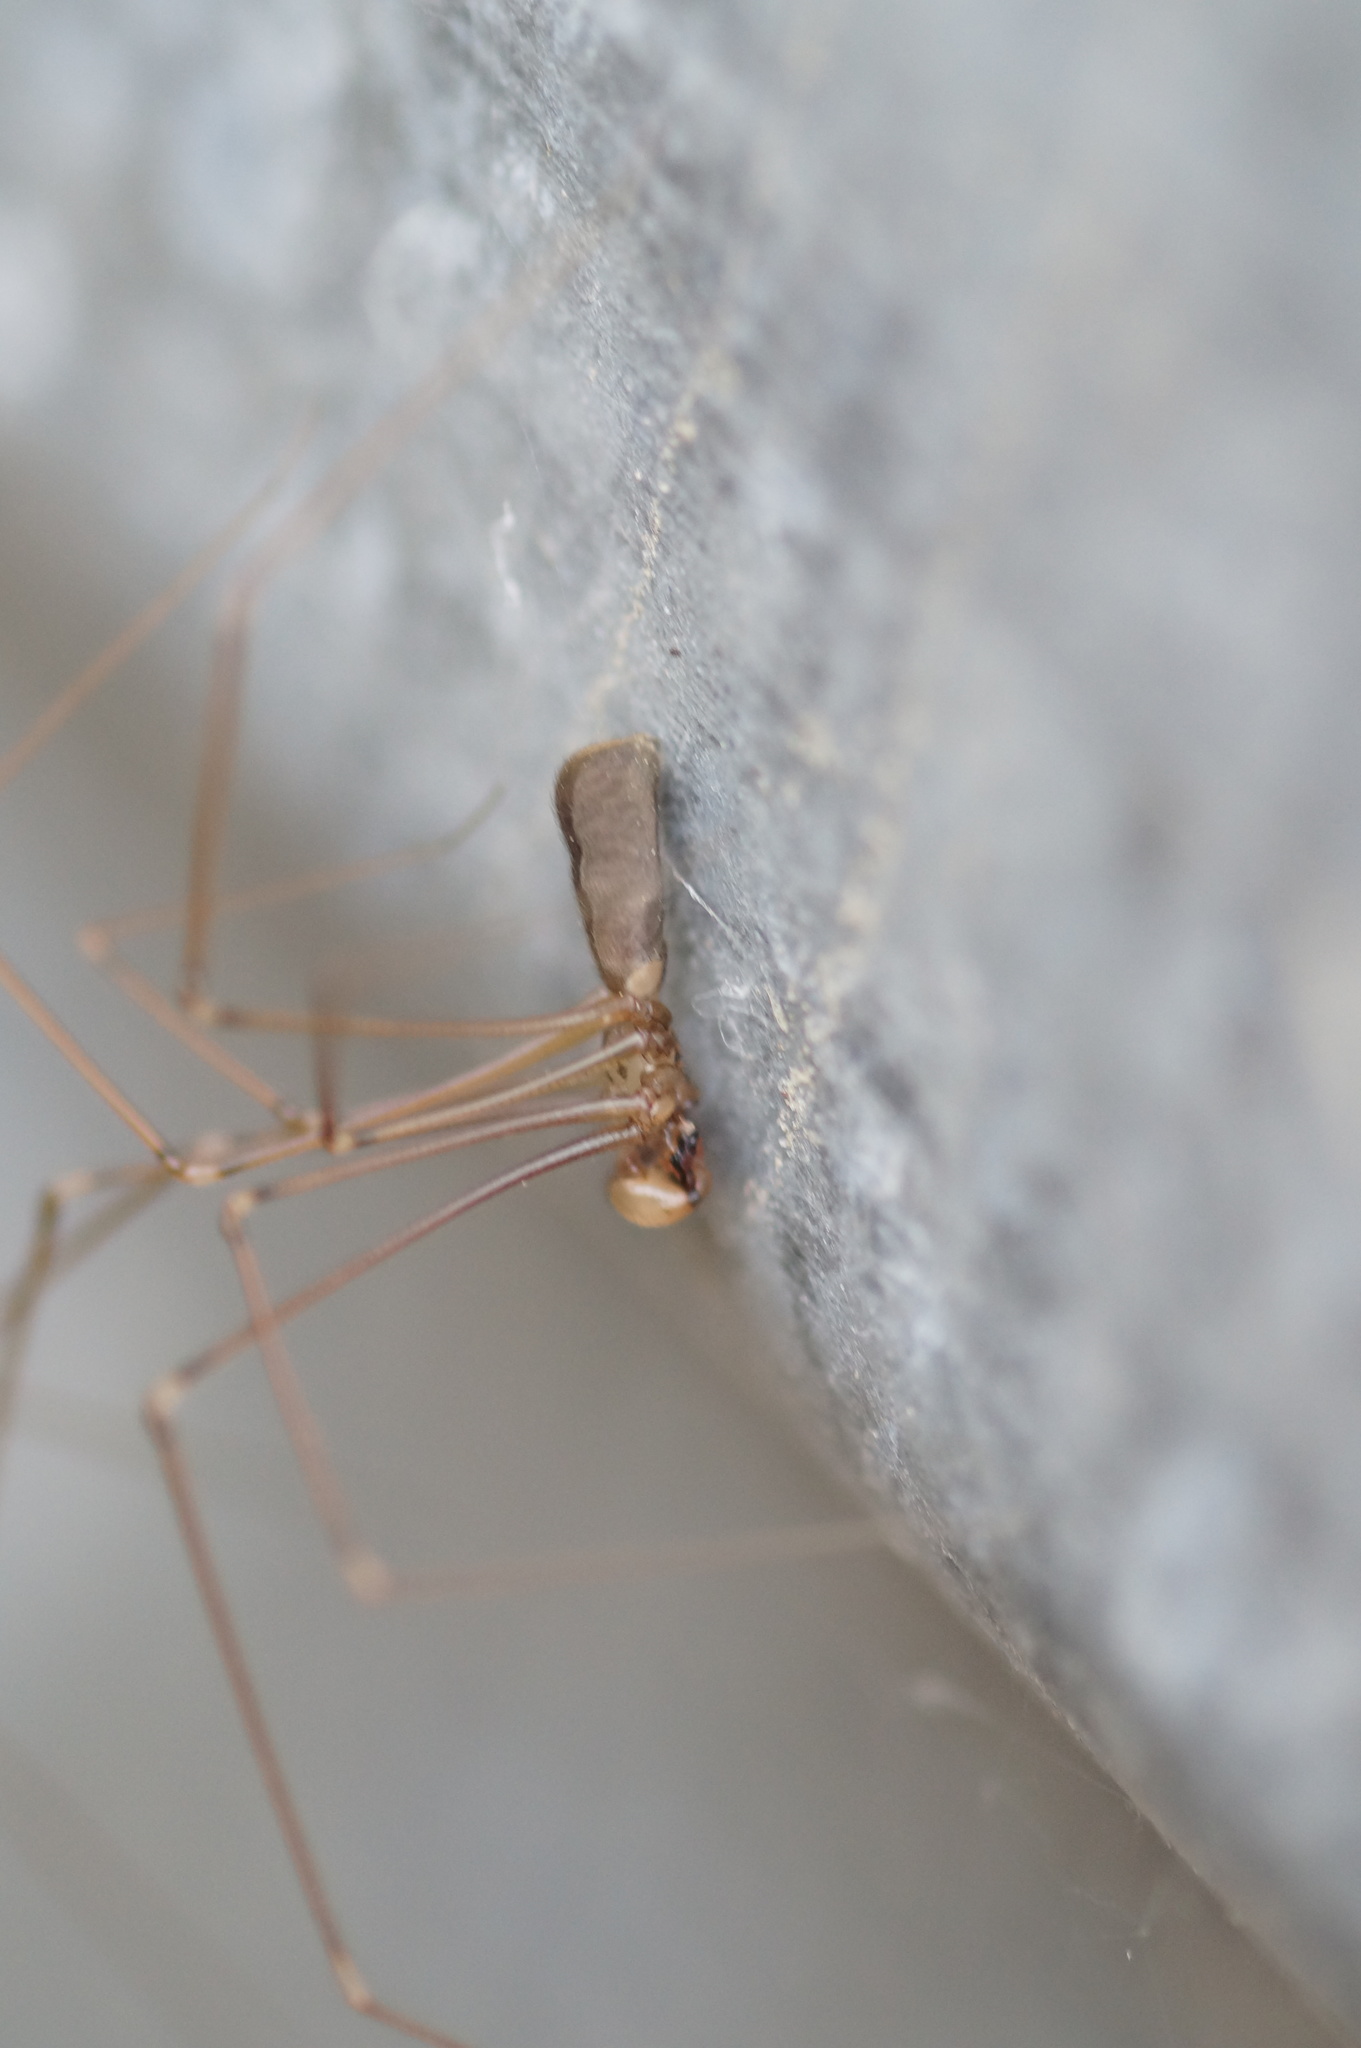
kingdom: Animalia
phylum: Arthropoda
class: Arachnida
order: Araneae
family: Pholcidae
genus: Pholcus
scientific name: Pholcus opilionoides
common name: Daddylongleg spider
